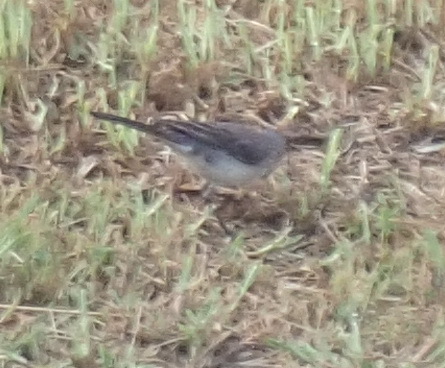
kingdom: Animalia
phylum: Chordata
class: Aves
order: Passeriformes
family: Motacillidae
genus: Motacilla
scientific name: Motacilla capensis
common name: Cape wagtail
